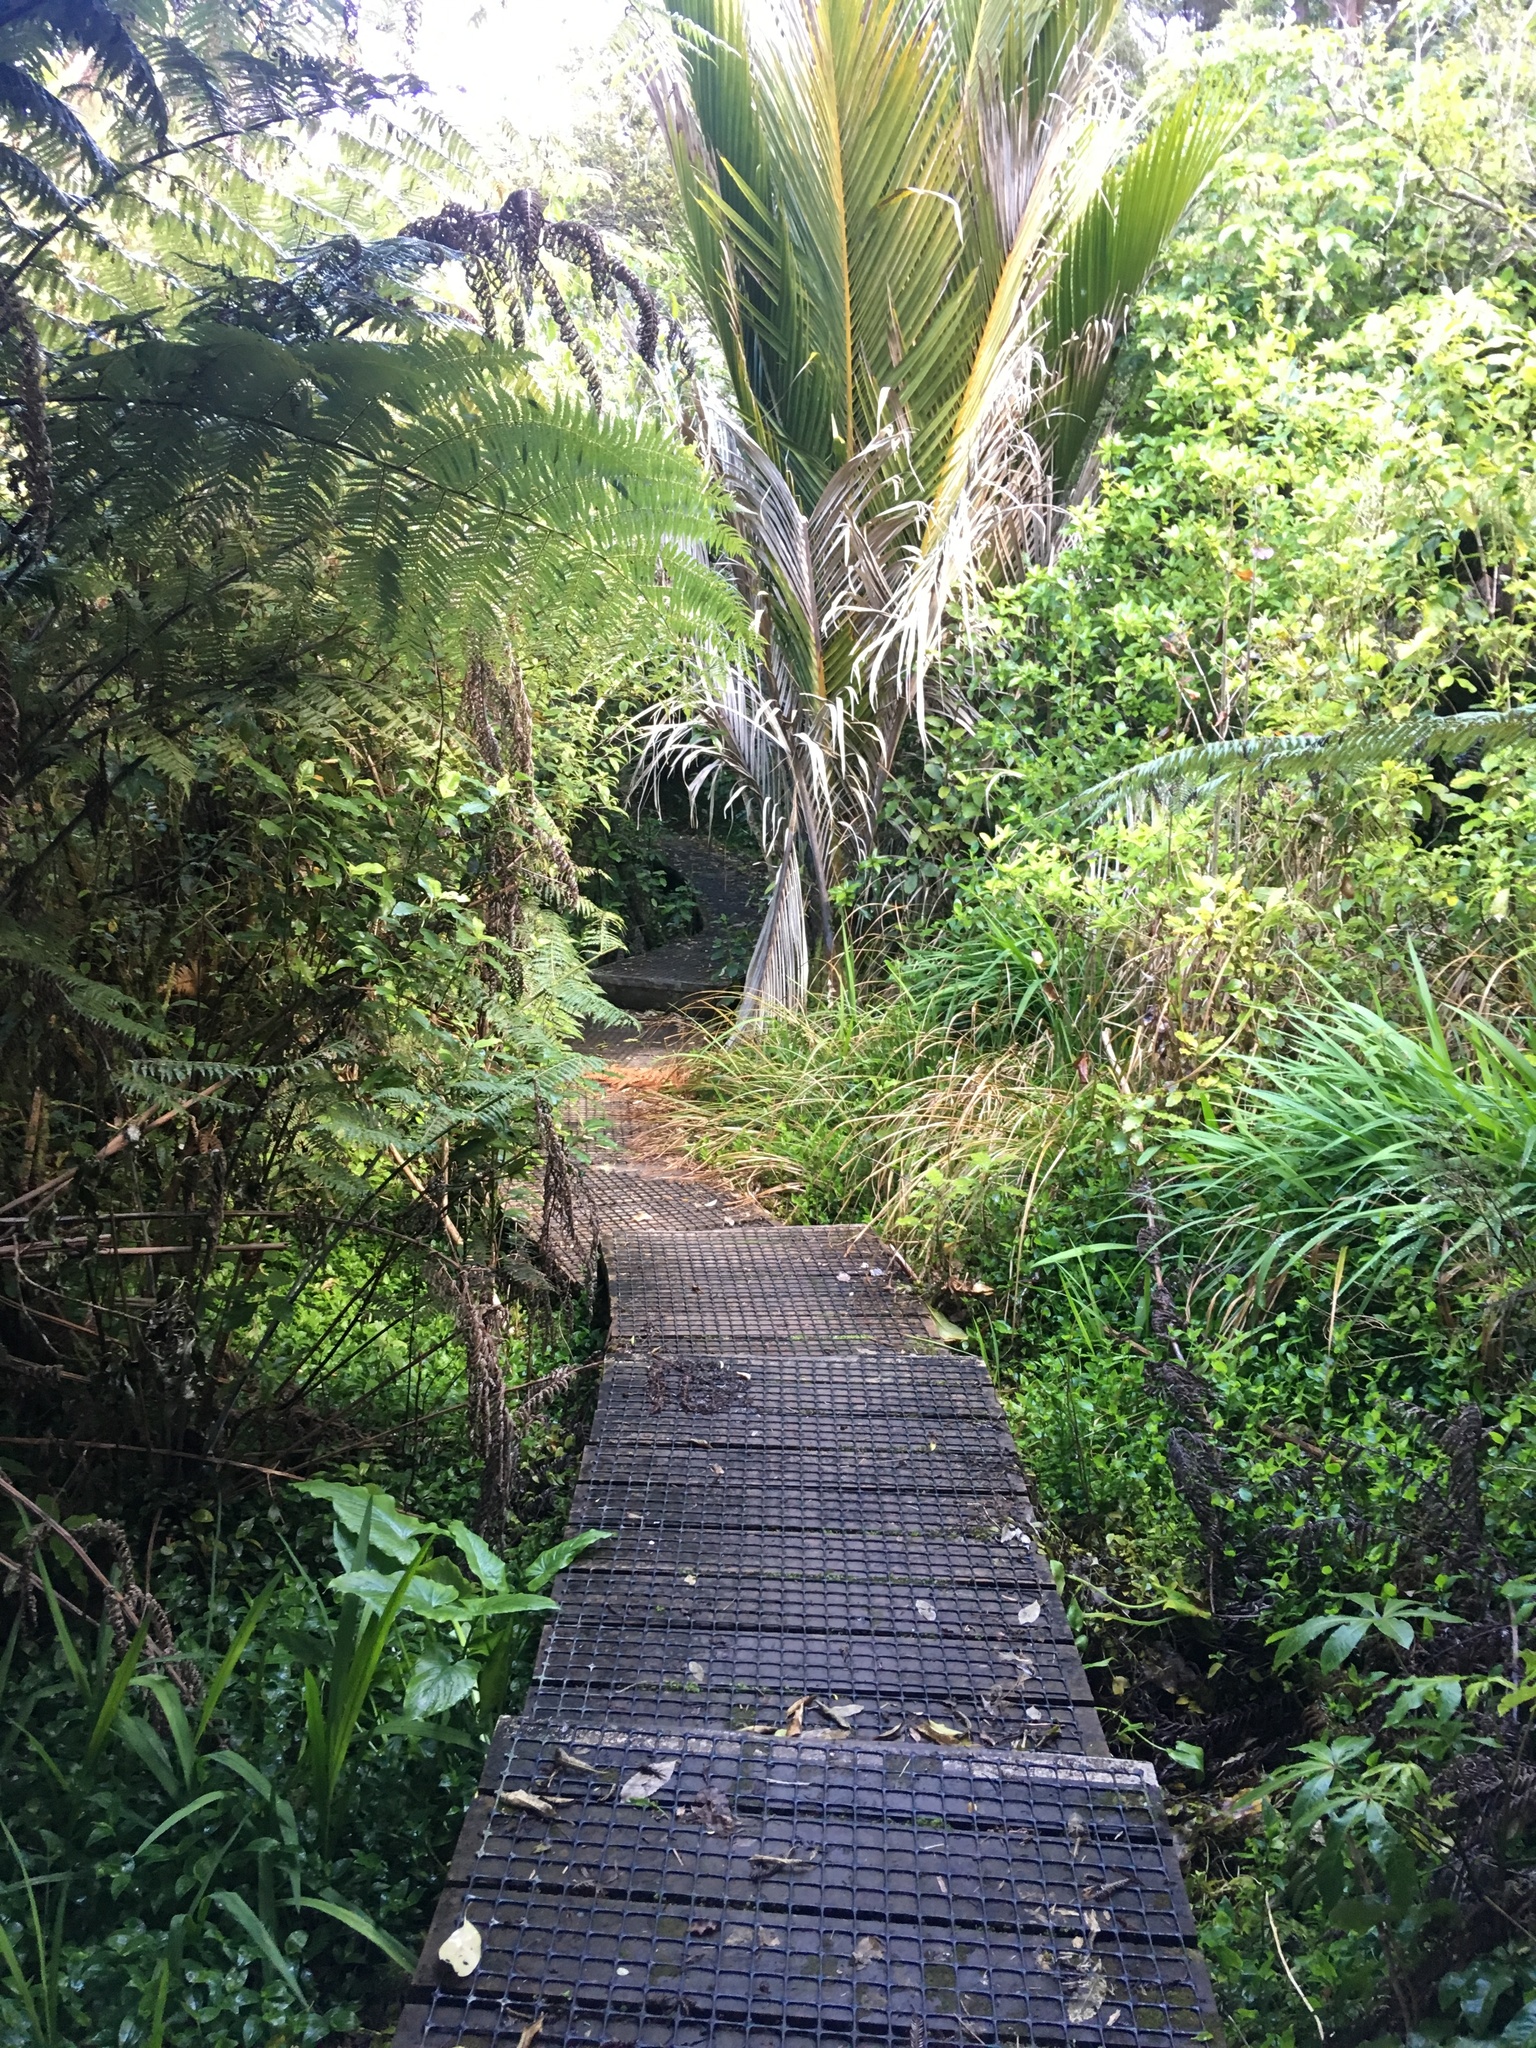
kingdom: Plantae
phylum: Tracheophyta
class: Liliopsida
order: Arecales
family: Arecaceae
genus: Rhopalostylis
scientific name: Rhopalostylis sapida
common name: Feather-duster palm
